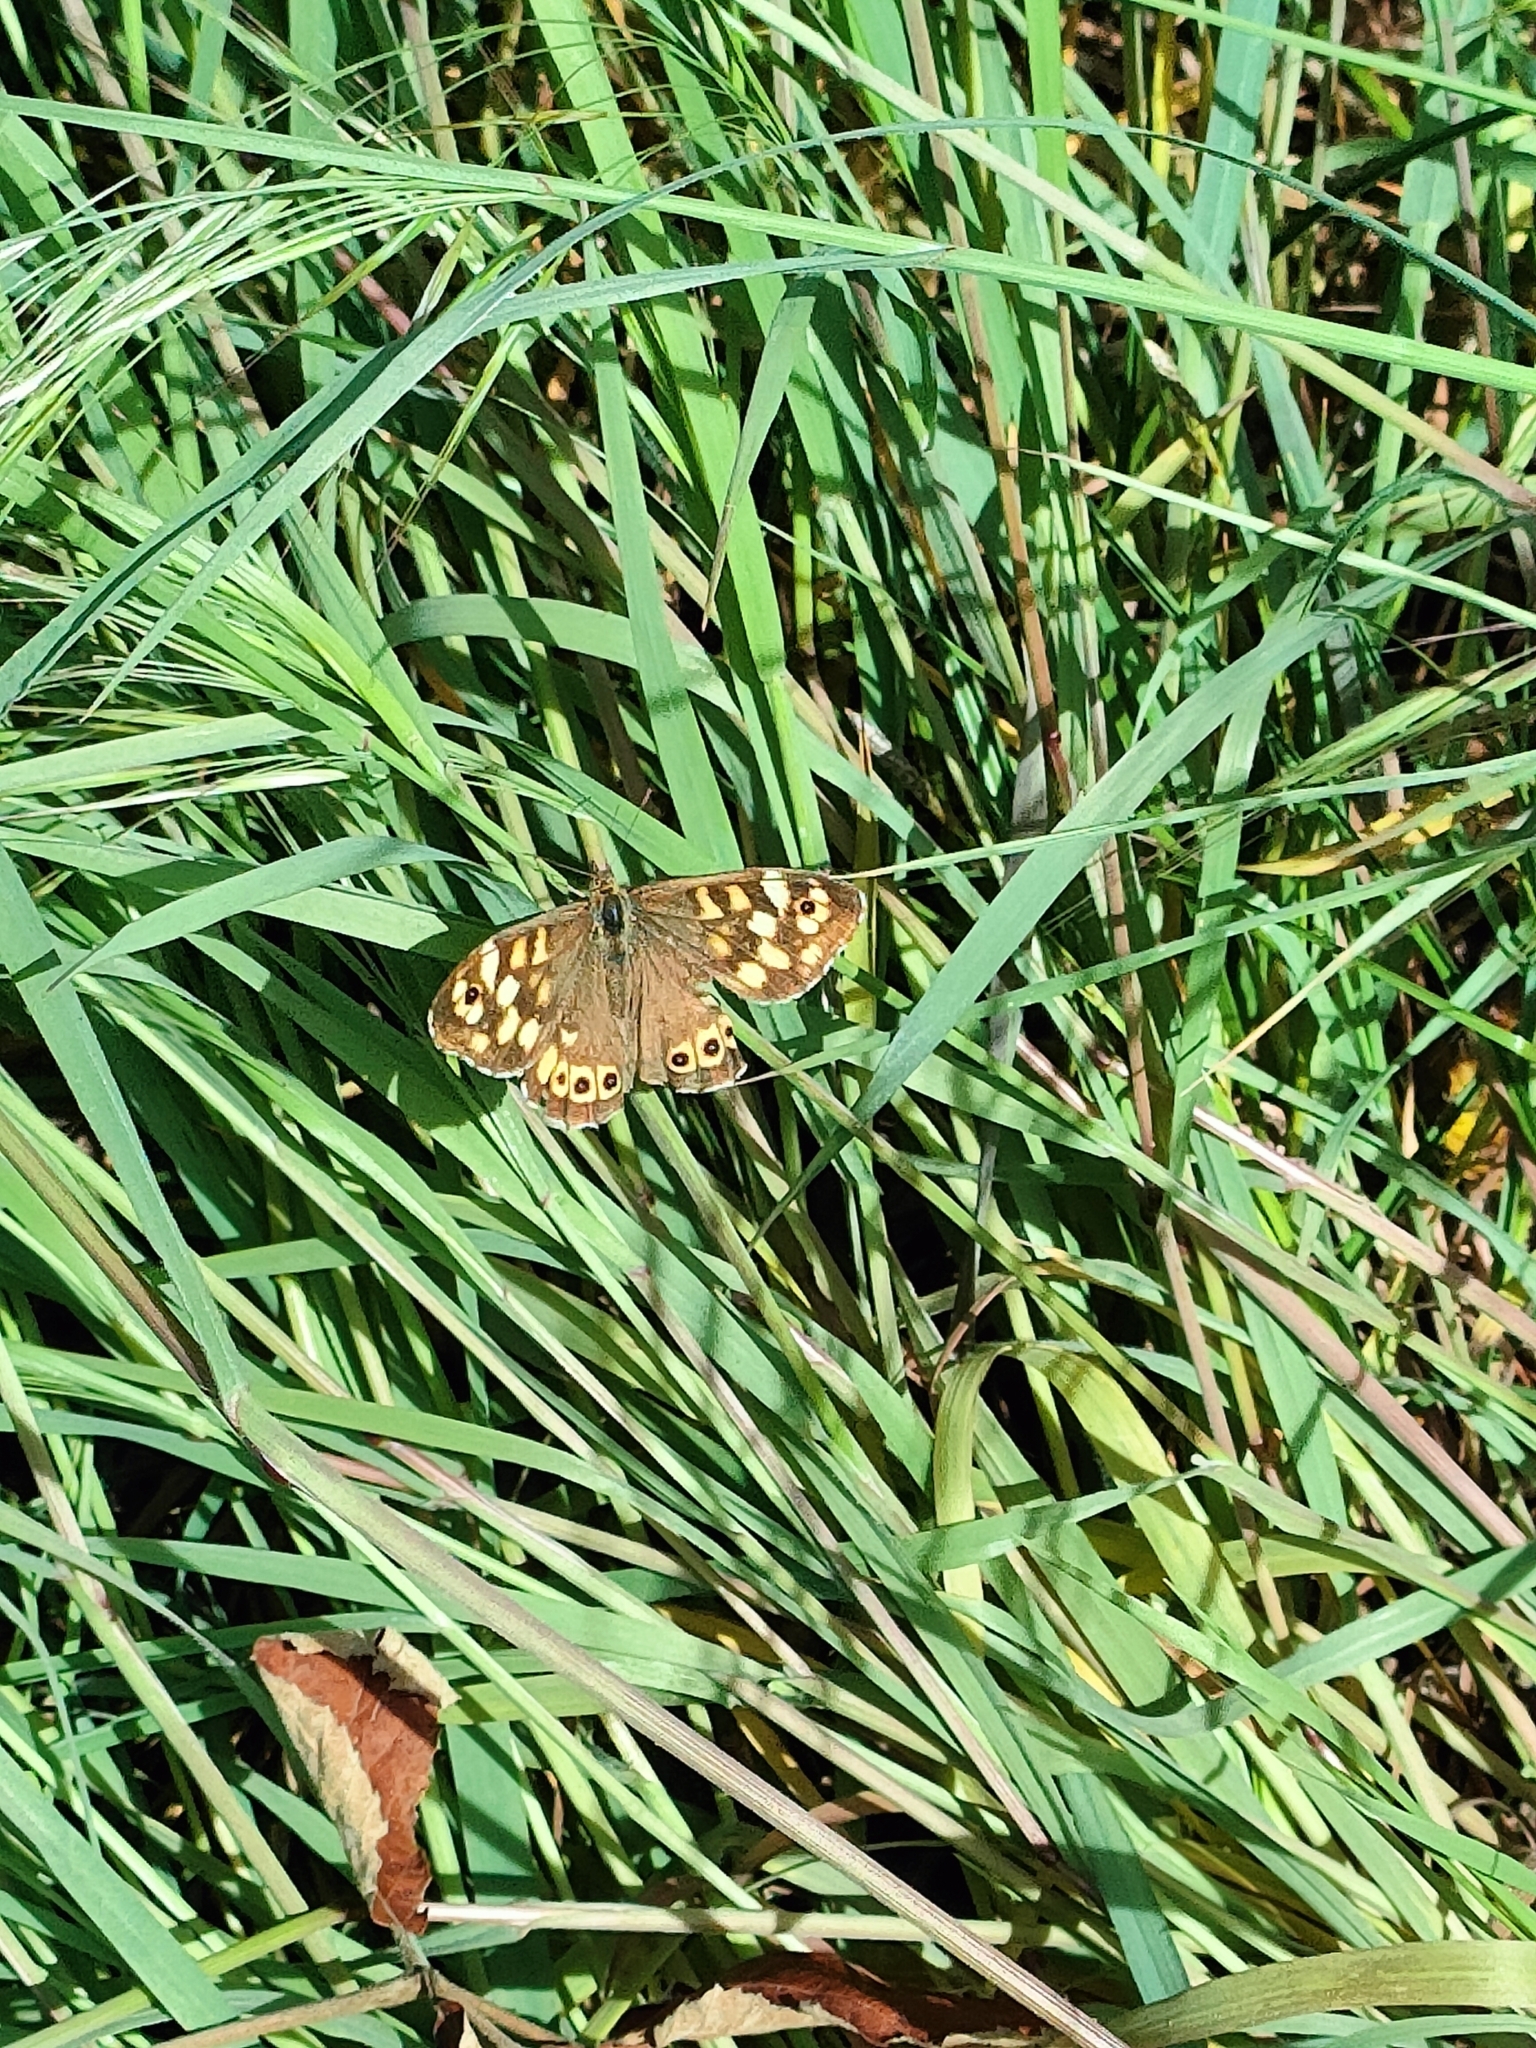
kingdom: Animalia
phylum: Arthropoda
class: Insecta
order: Lepidoptera
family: Nymphalidae
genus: Pararge
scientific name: Pararge aegeria
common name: Speckled wood
